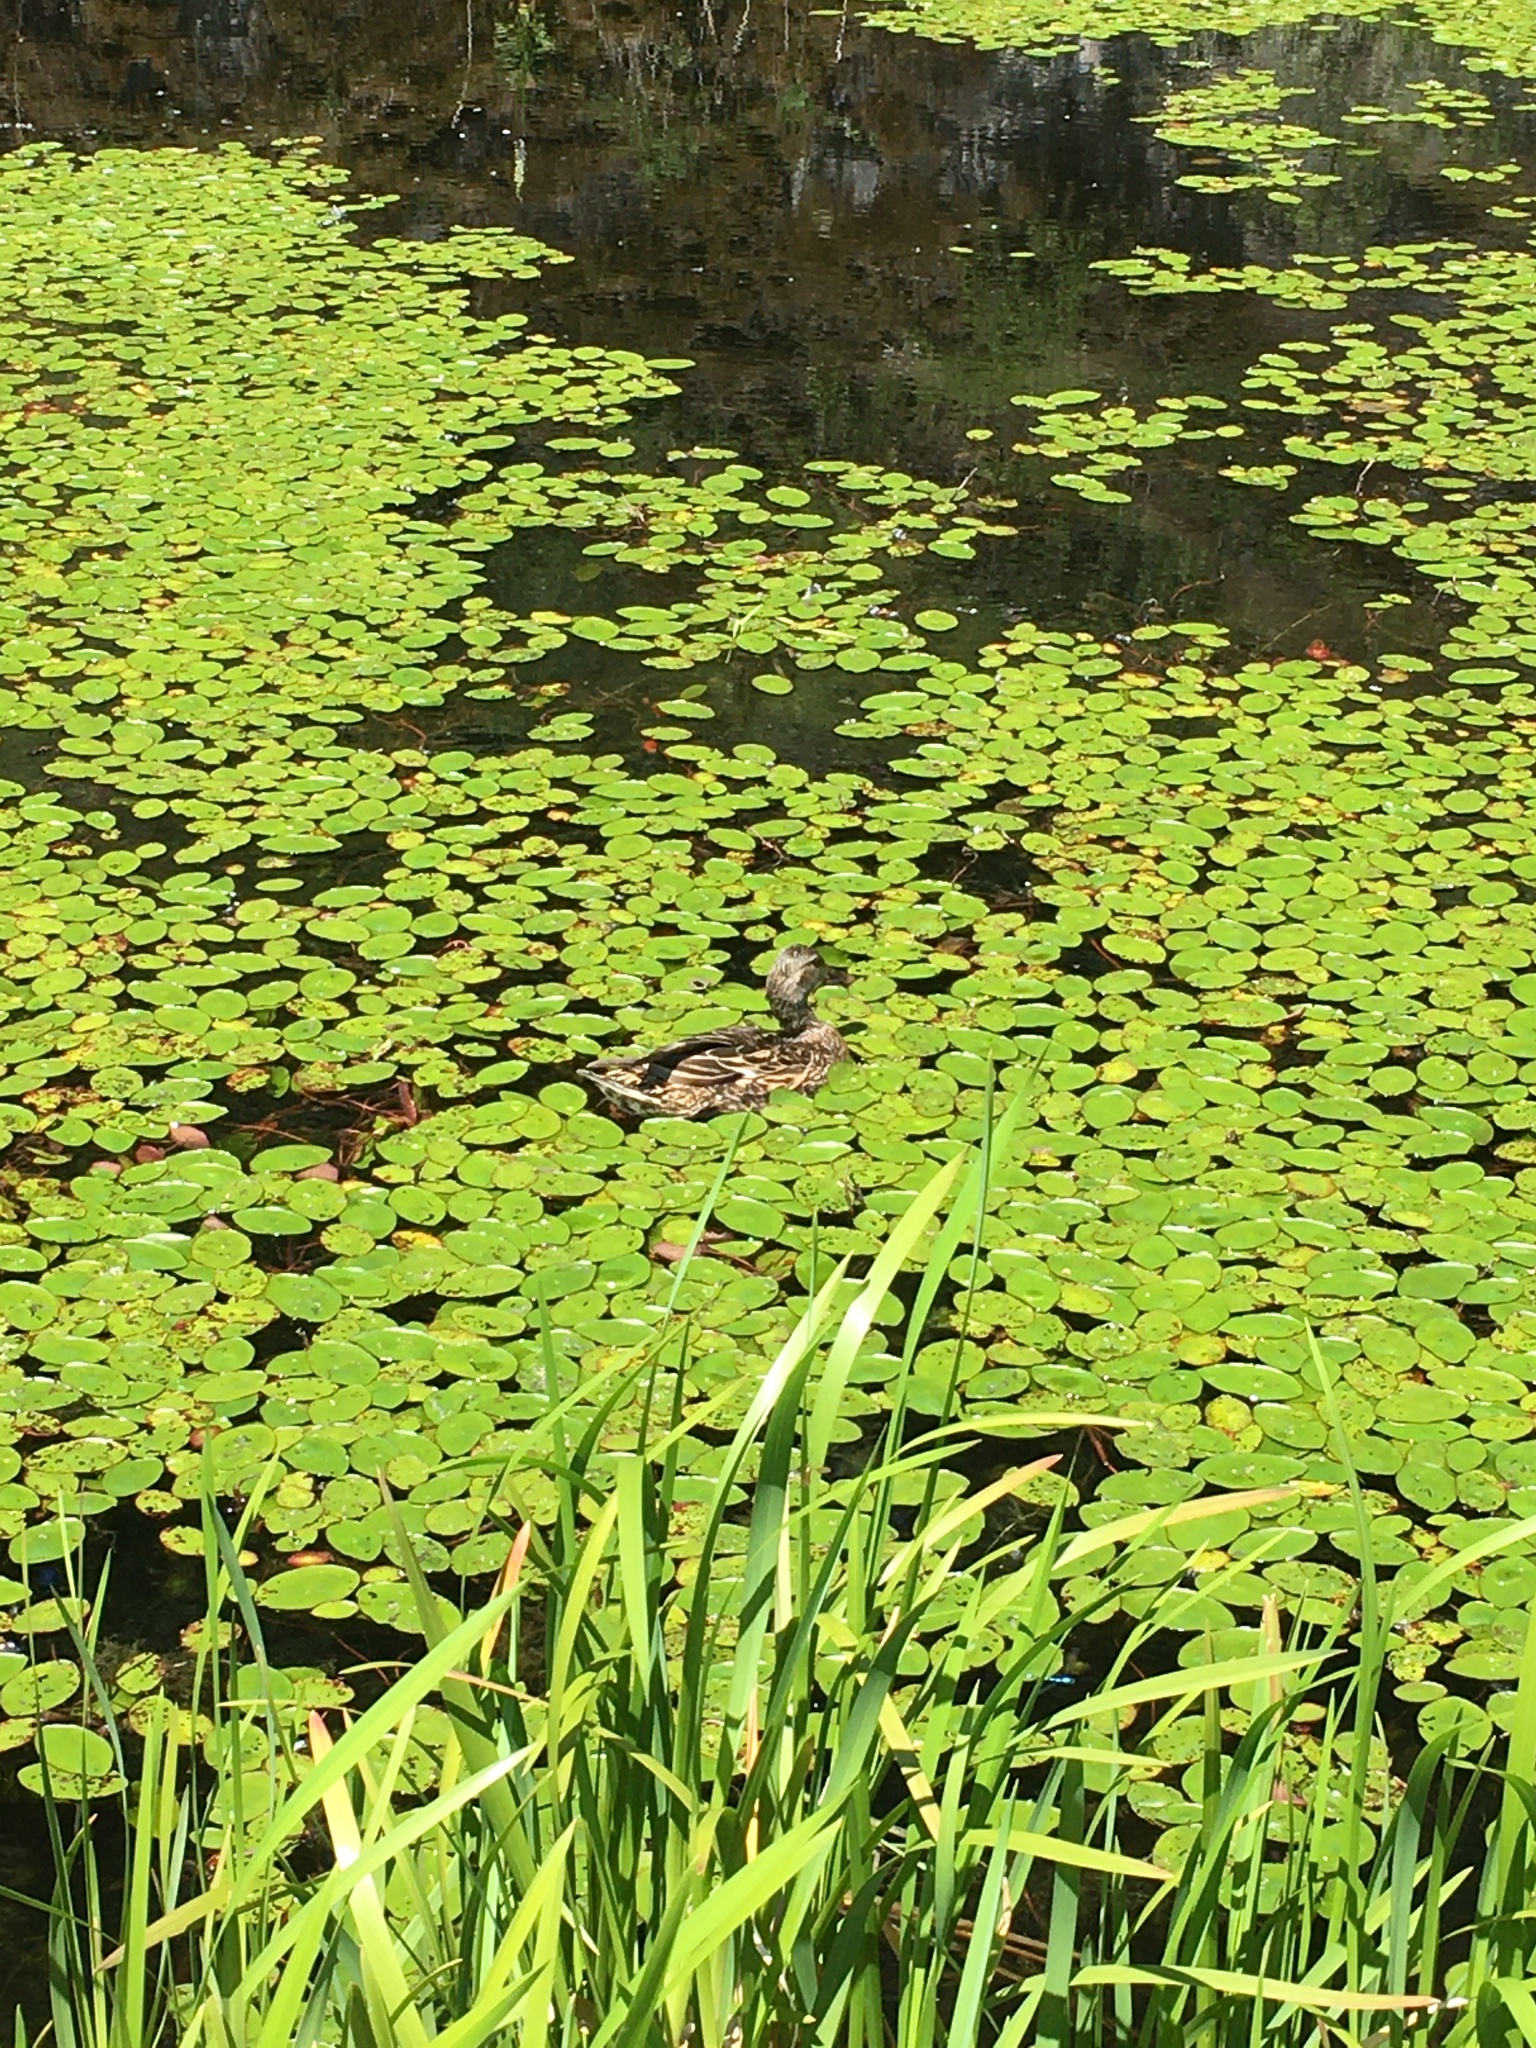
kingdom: Animalia
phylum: Chordata
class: Aves
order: Anseriformes
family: Anatidae
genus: Anas
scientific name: Anas platyrhynchos
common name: Mallard
